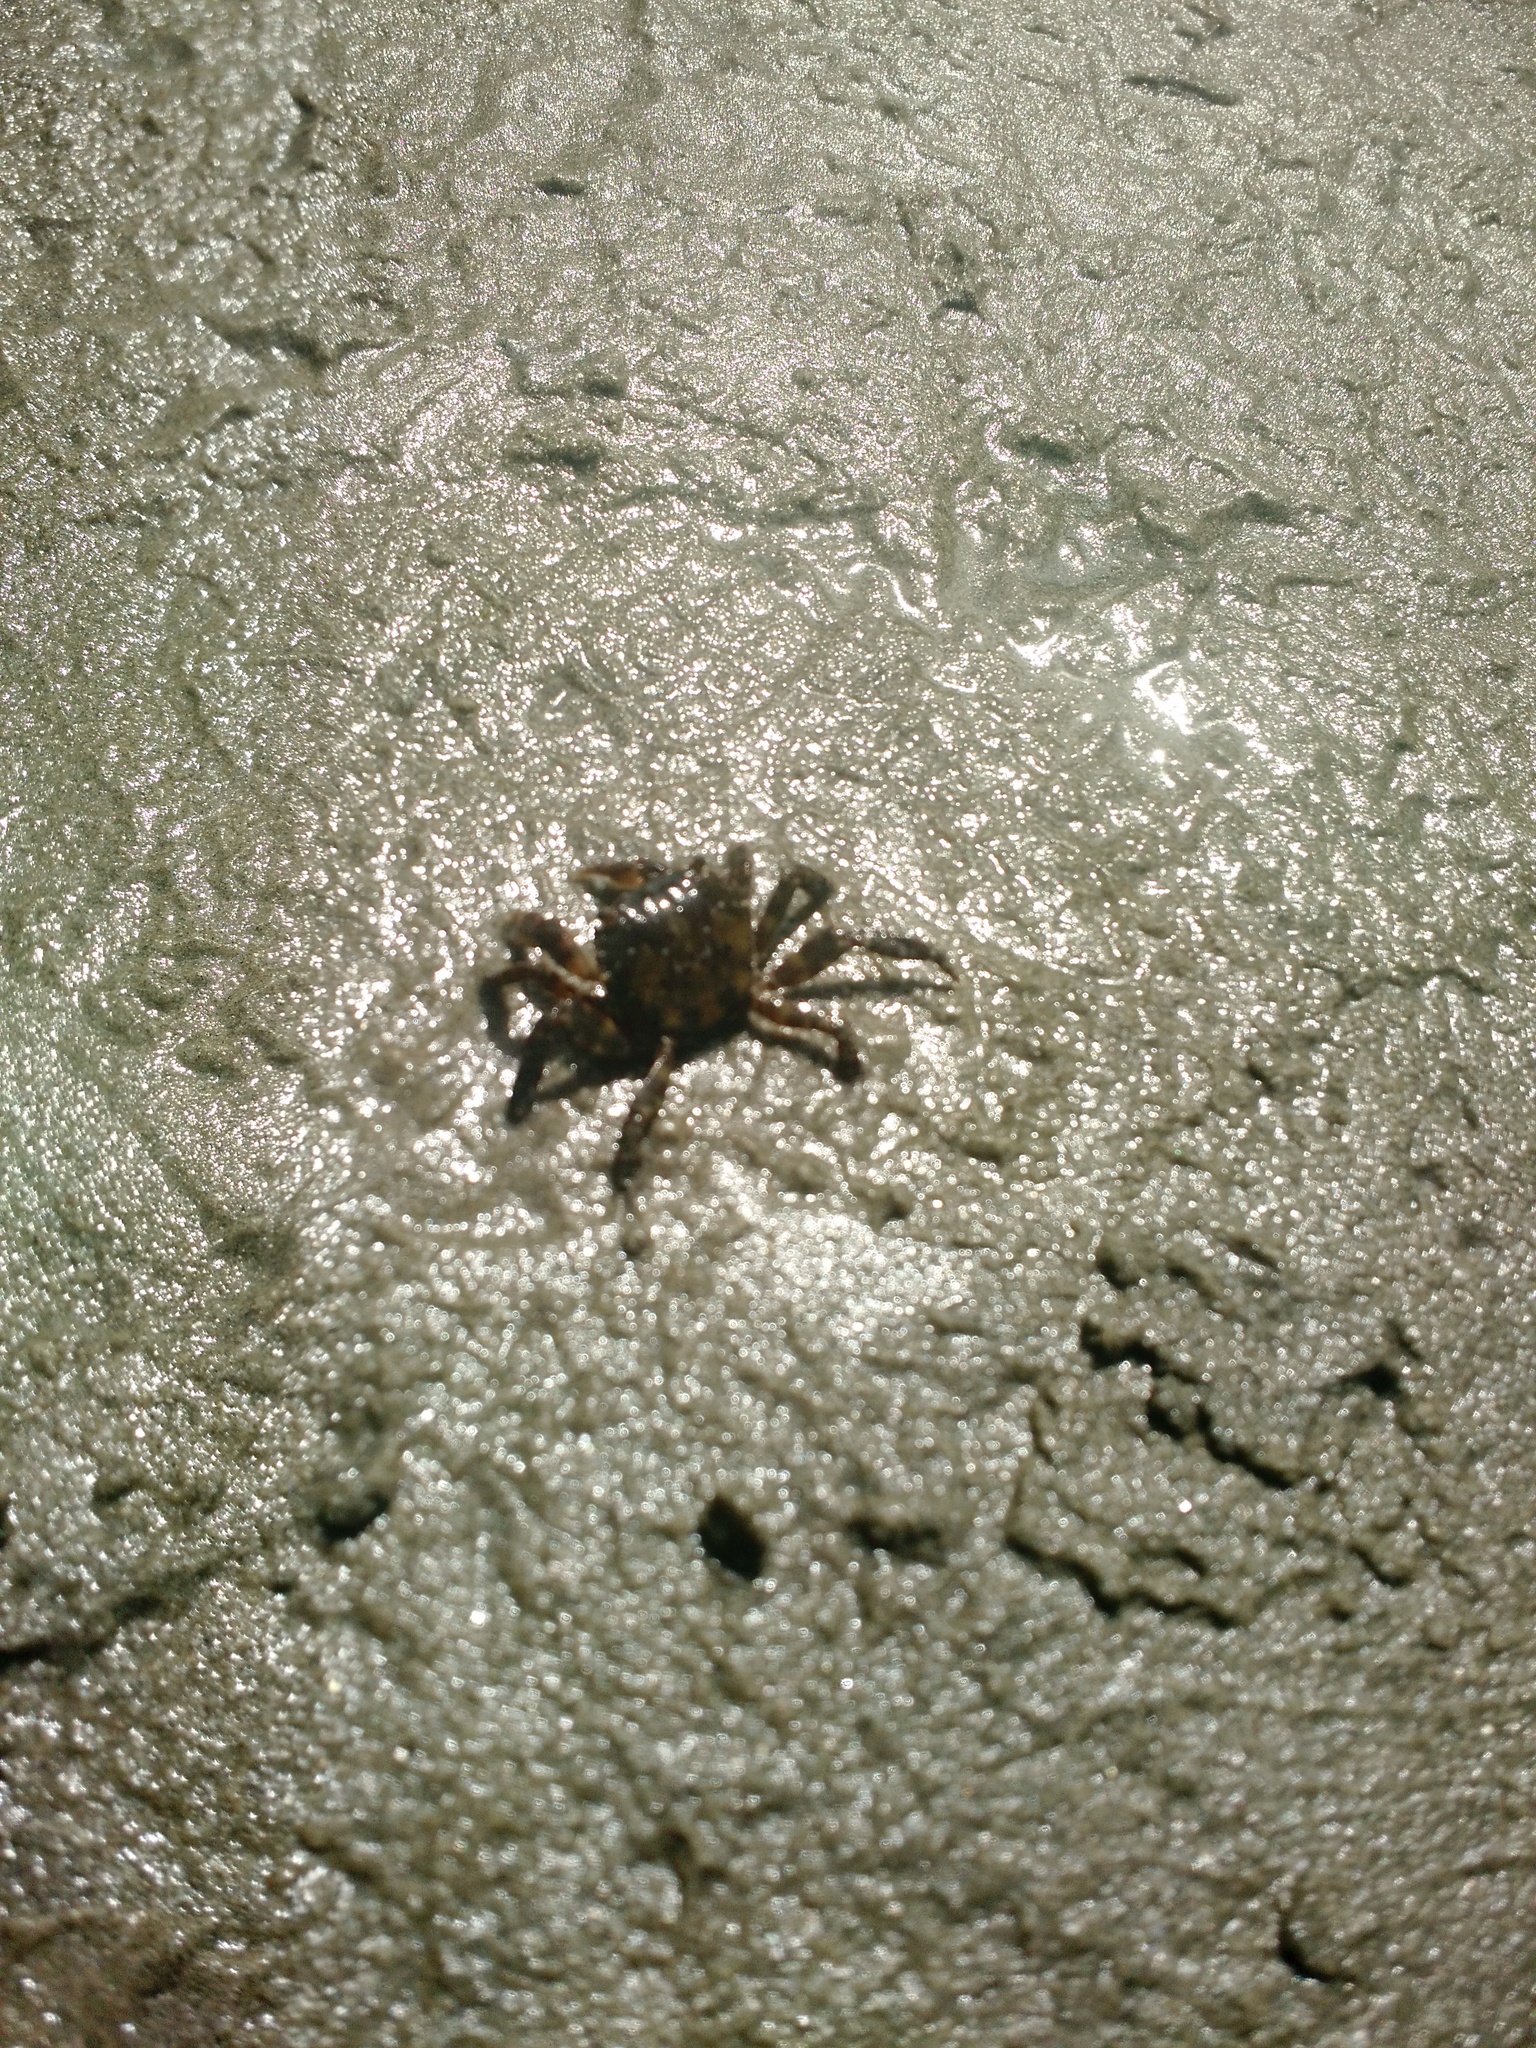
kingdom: Animalia
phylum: Arthropoda
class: Malacostraca
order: Decapoda
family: Varunidae
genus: Hemigrapsus
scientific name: Hemigrapsus sanguineus
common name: Asian shore crab
